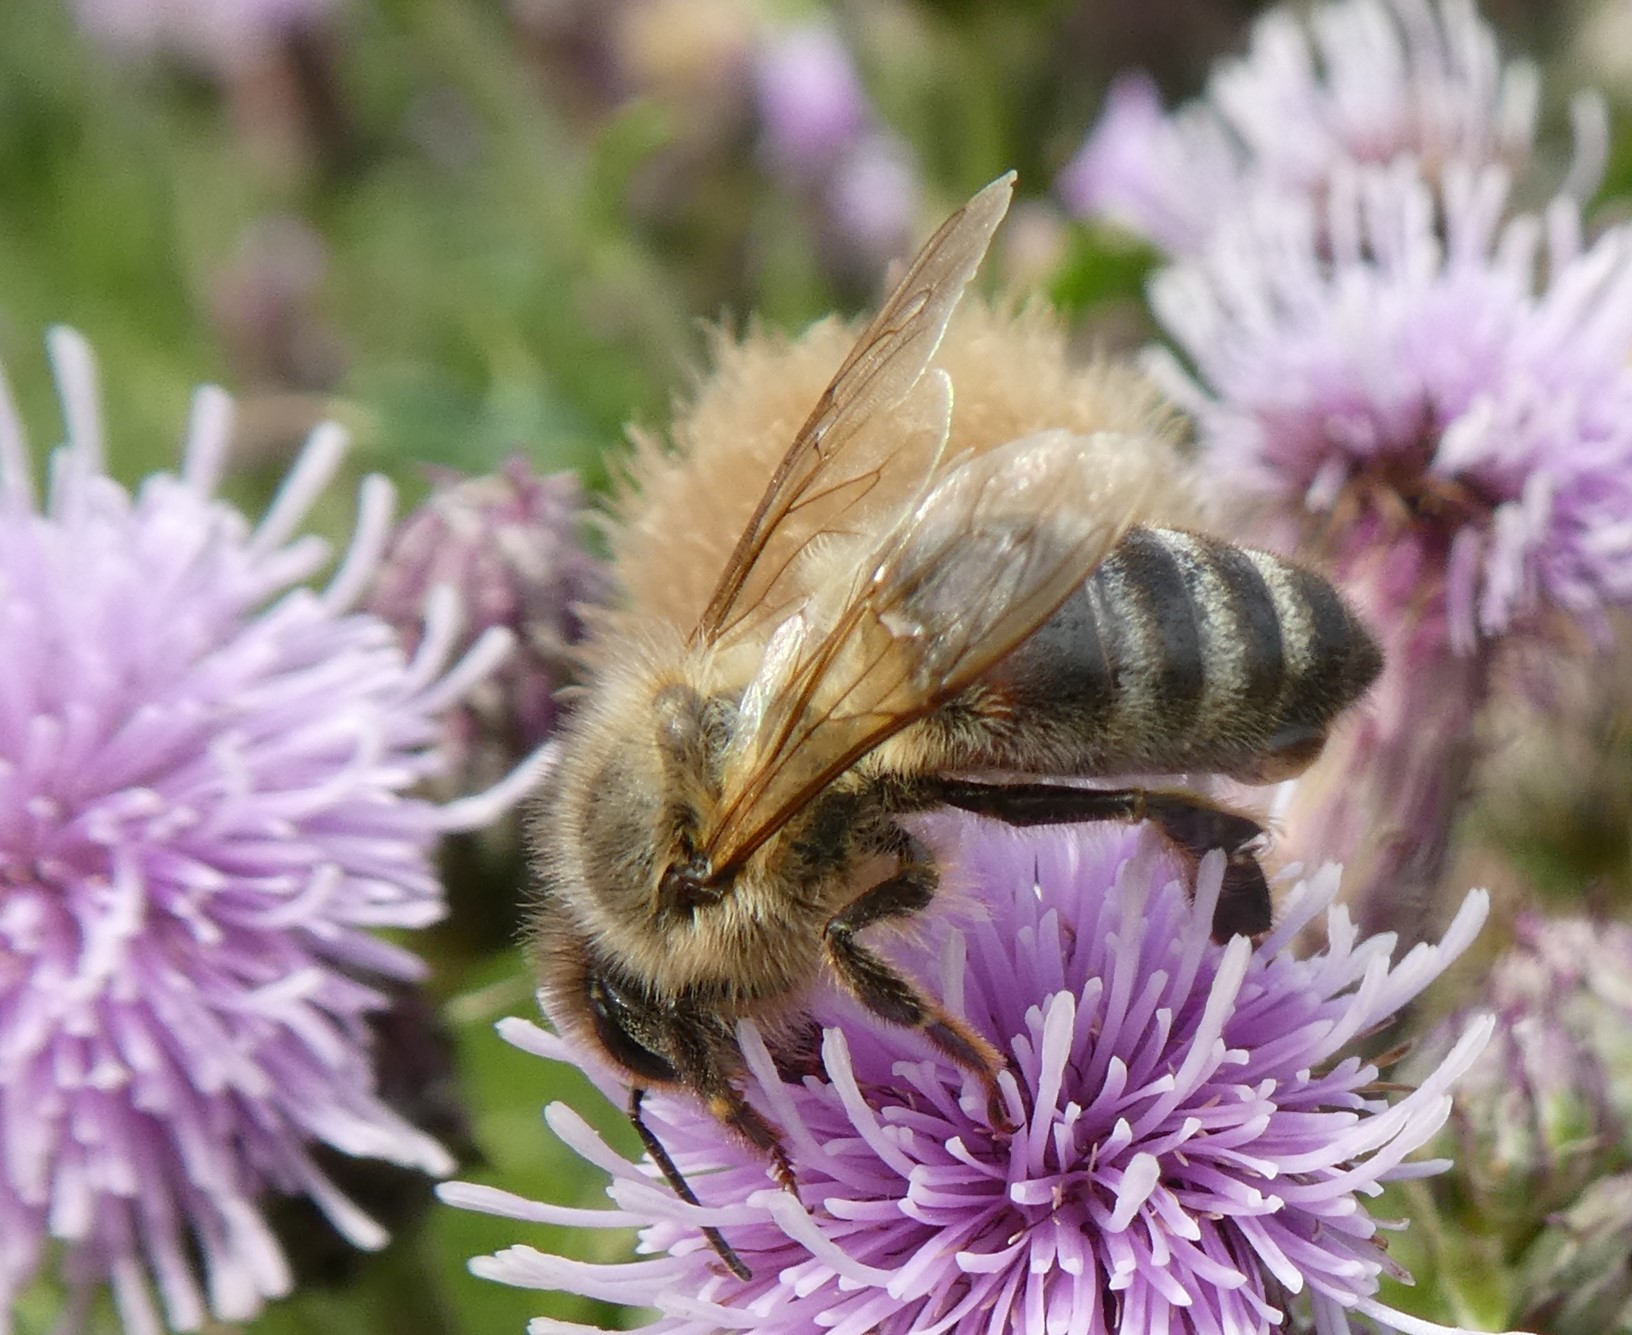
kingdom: Animalia
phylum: Arthropoda
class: Insecta
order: Hymenoptera
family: Apidae
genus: Apis
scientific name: Apis mellifera
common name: Honey bee
